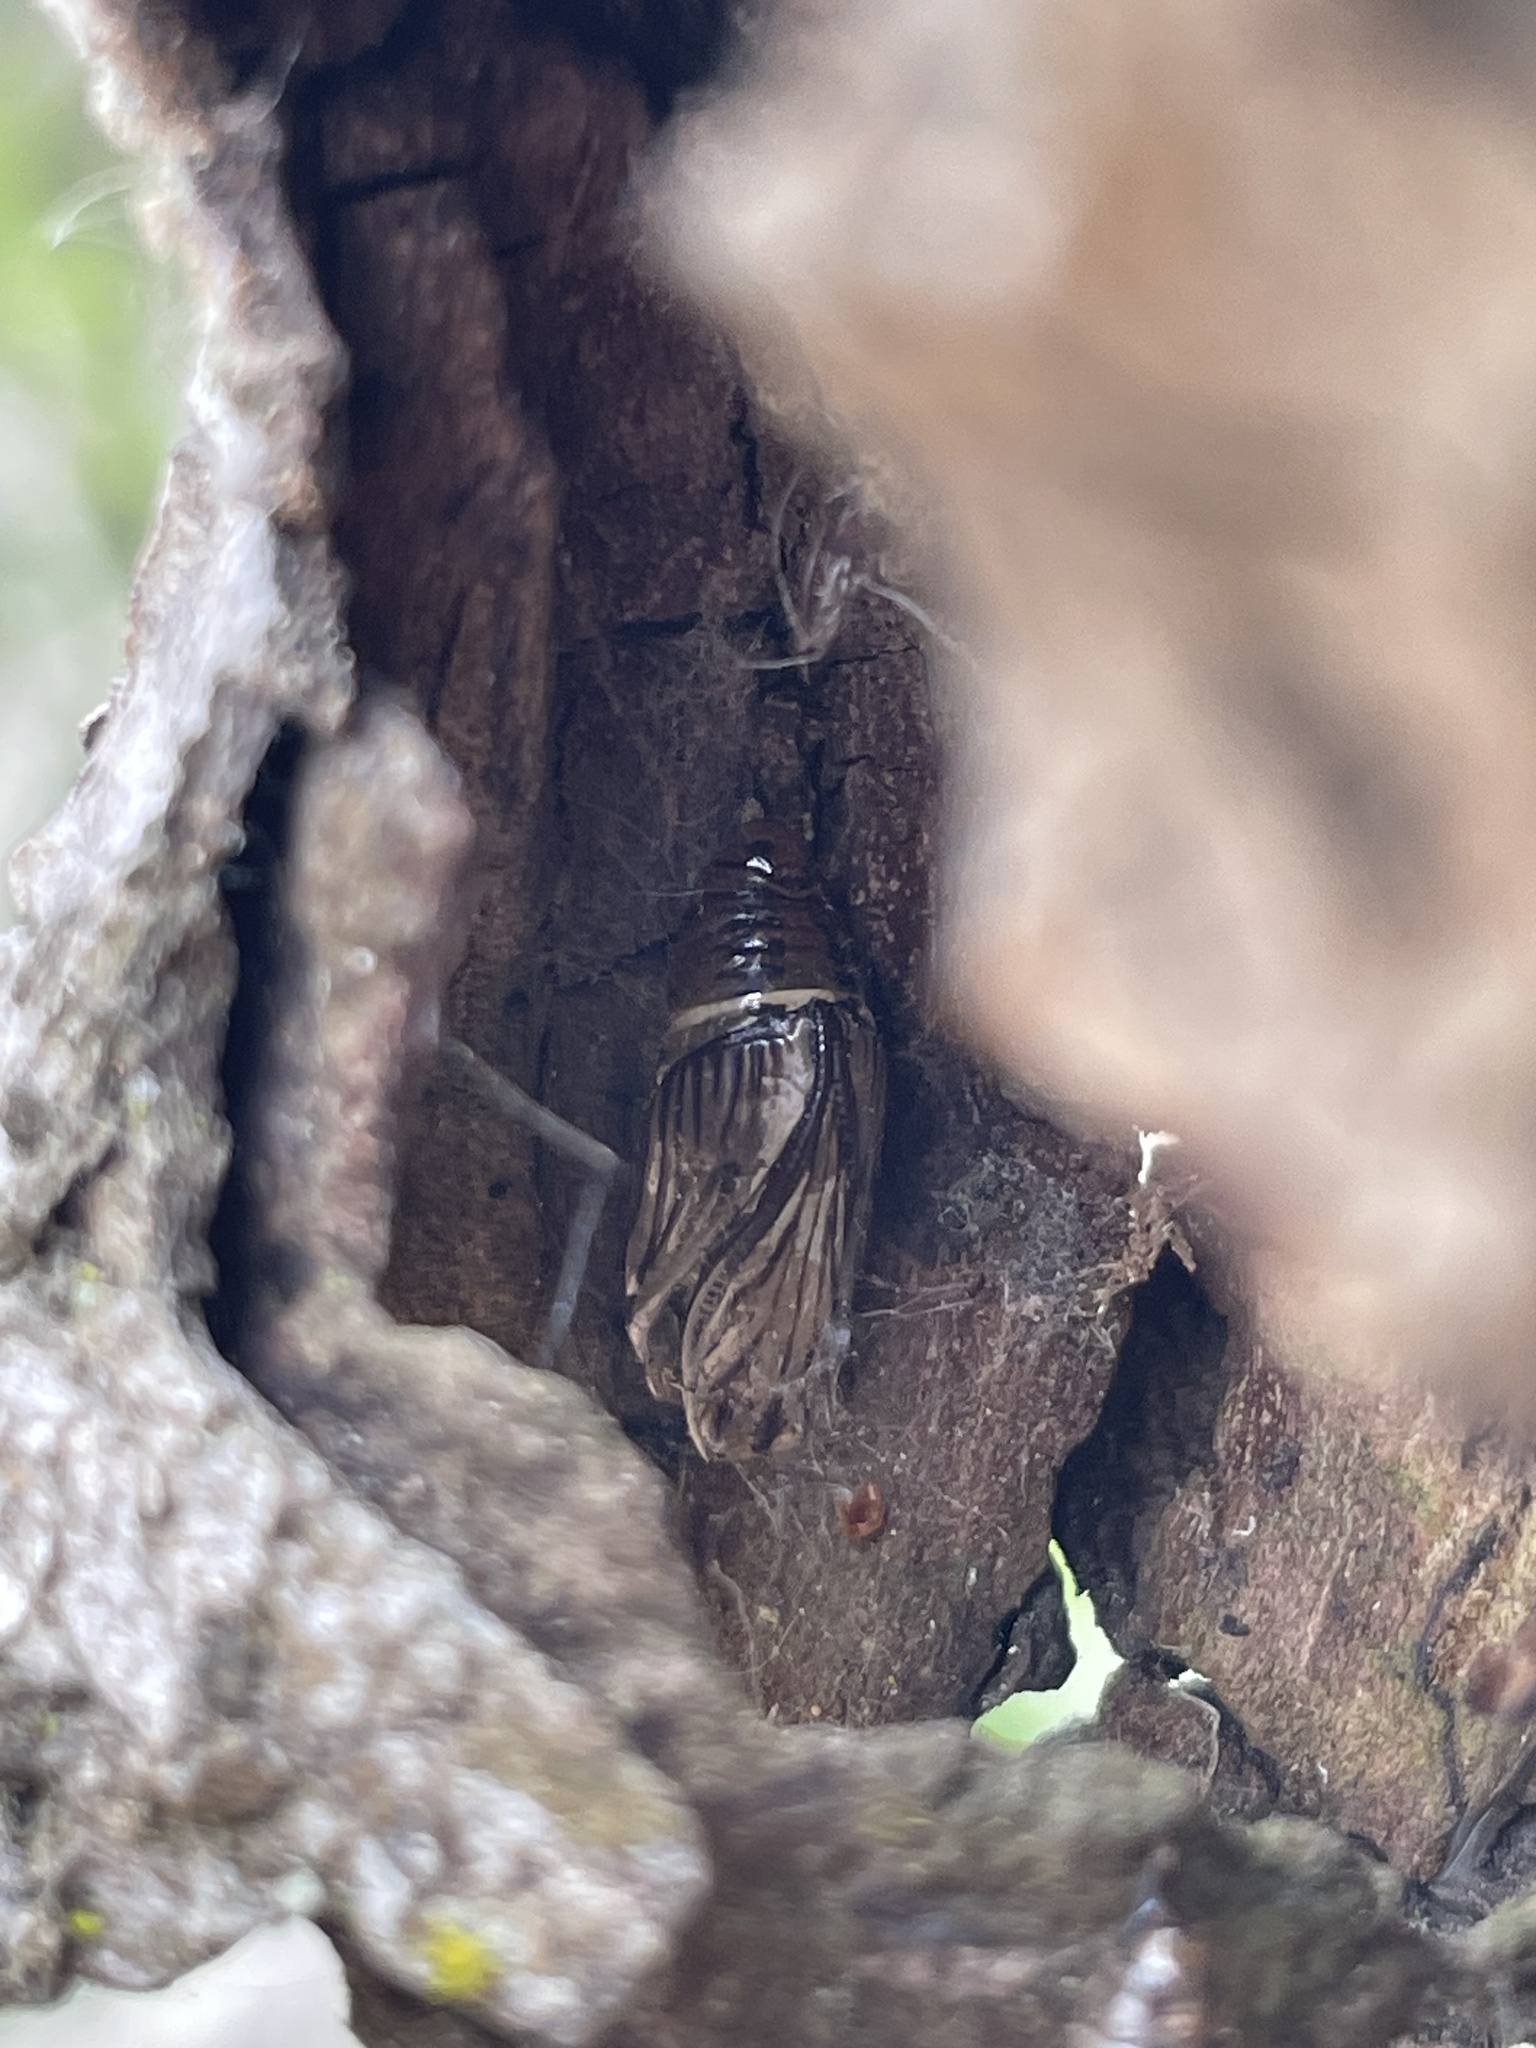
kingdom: Animalia
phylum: Arthropoda
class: Insecta
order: Lepidoptera
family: Notodontidae
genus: Phryganidia
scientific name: Phryganidia californica
